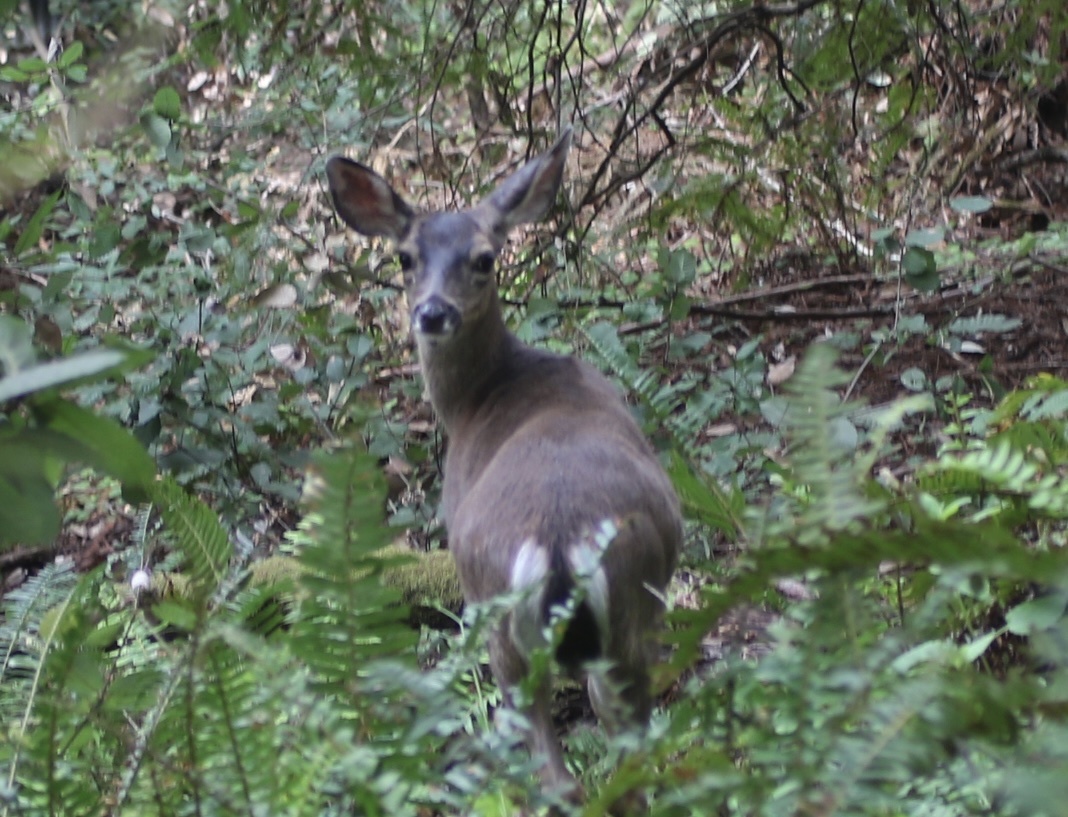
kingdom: Animalia
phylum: Chordata
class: Mammalia
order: Artiodactyla
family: Cervidae
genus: Odocoileus
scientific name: Odocoileus hemionus
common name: Mule deer
